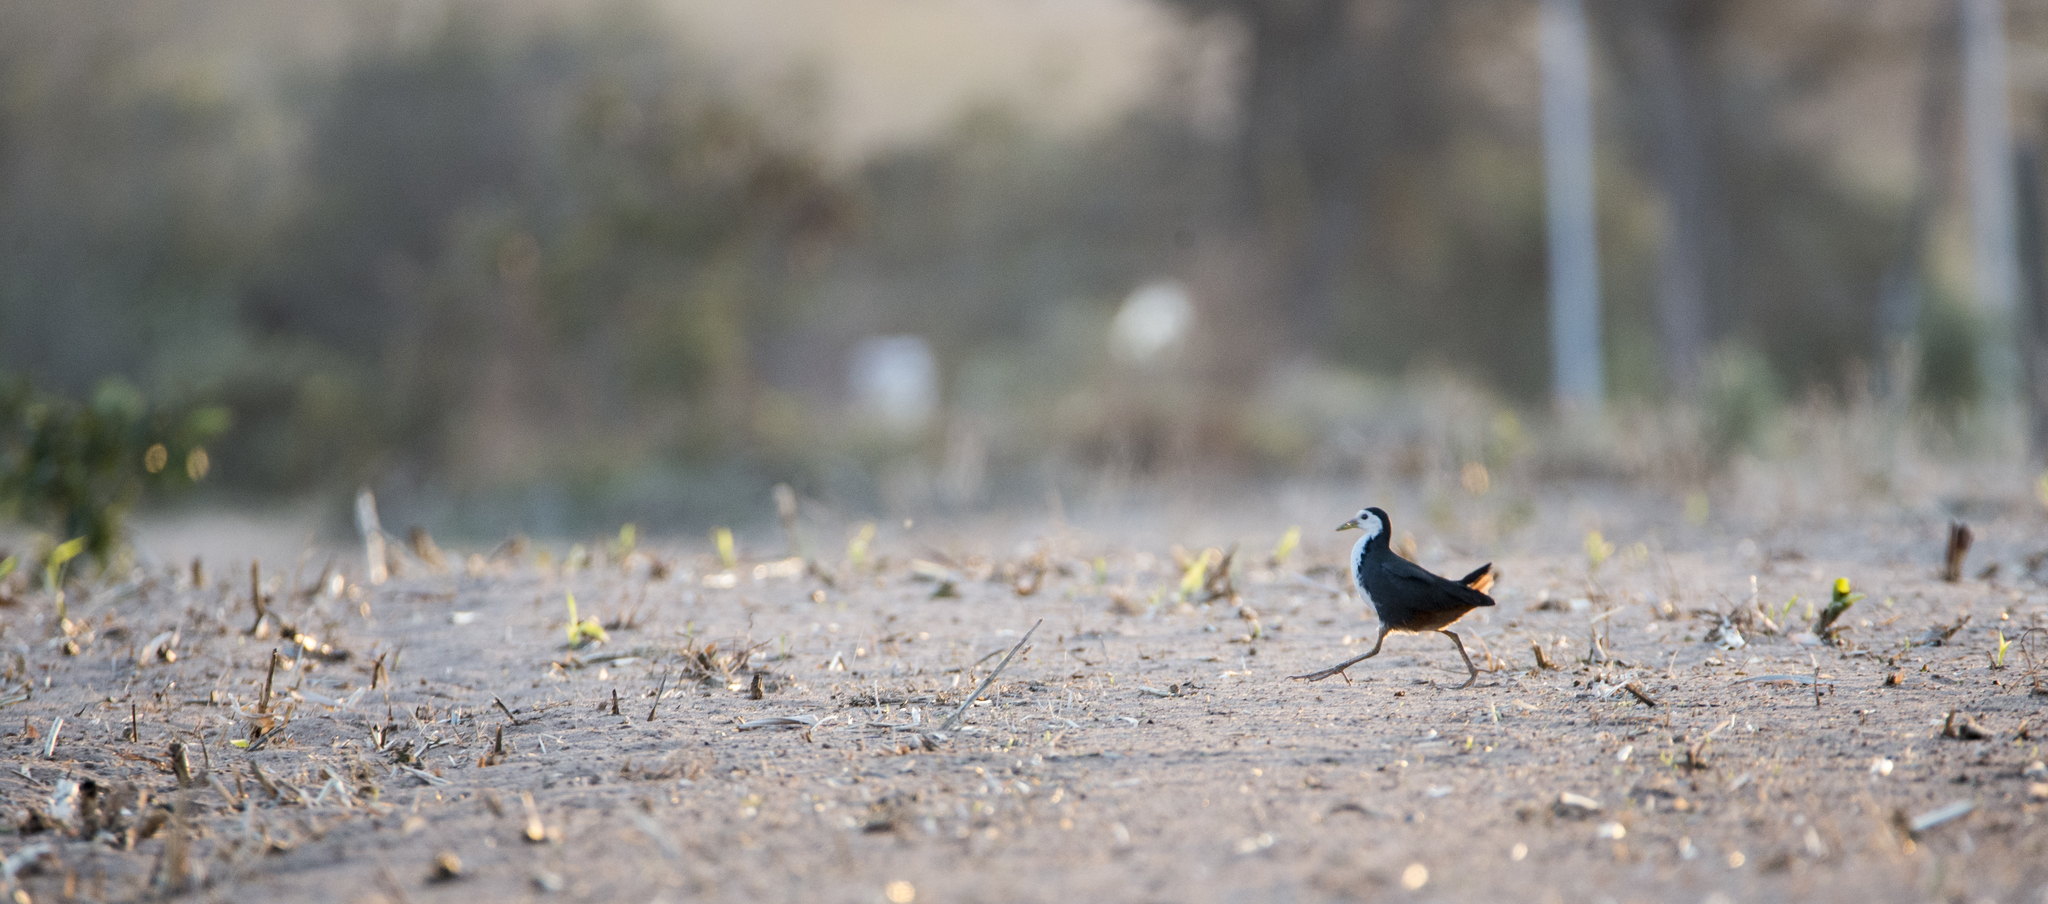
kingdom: Animalia
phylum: Chordata
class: Aves
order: Gruiformes
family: Rallidae
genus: Amaurornis
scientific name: Amaurornis phoenicurus
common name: White-breasted waterhen
